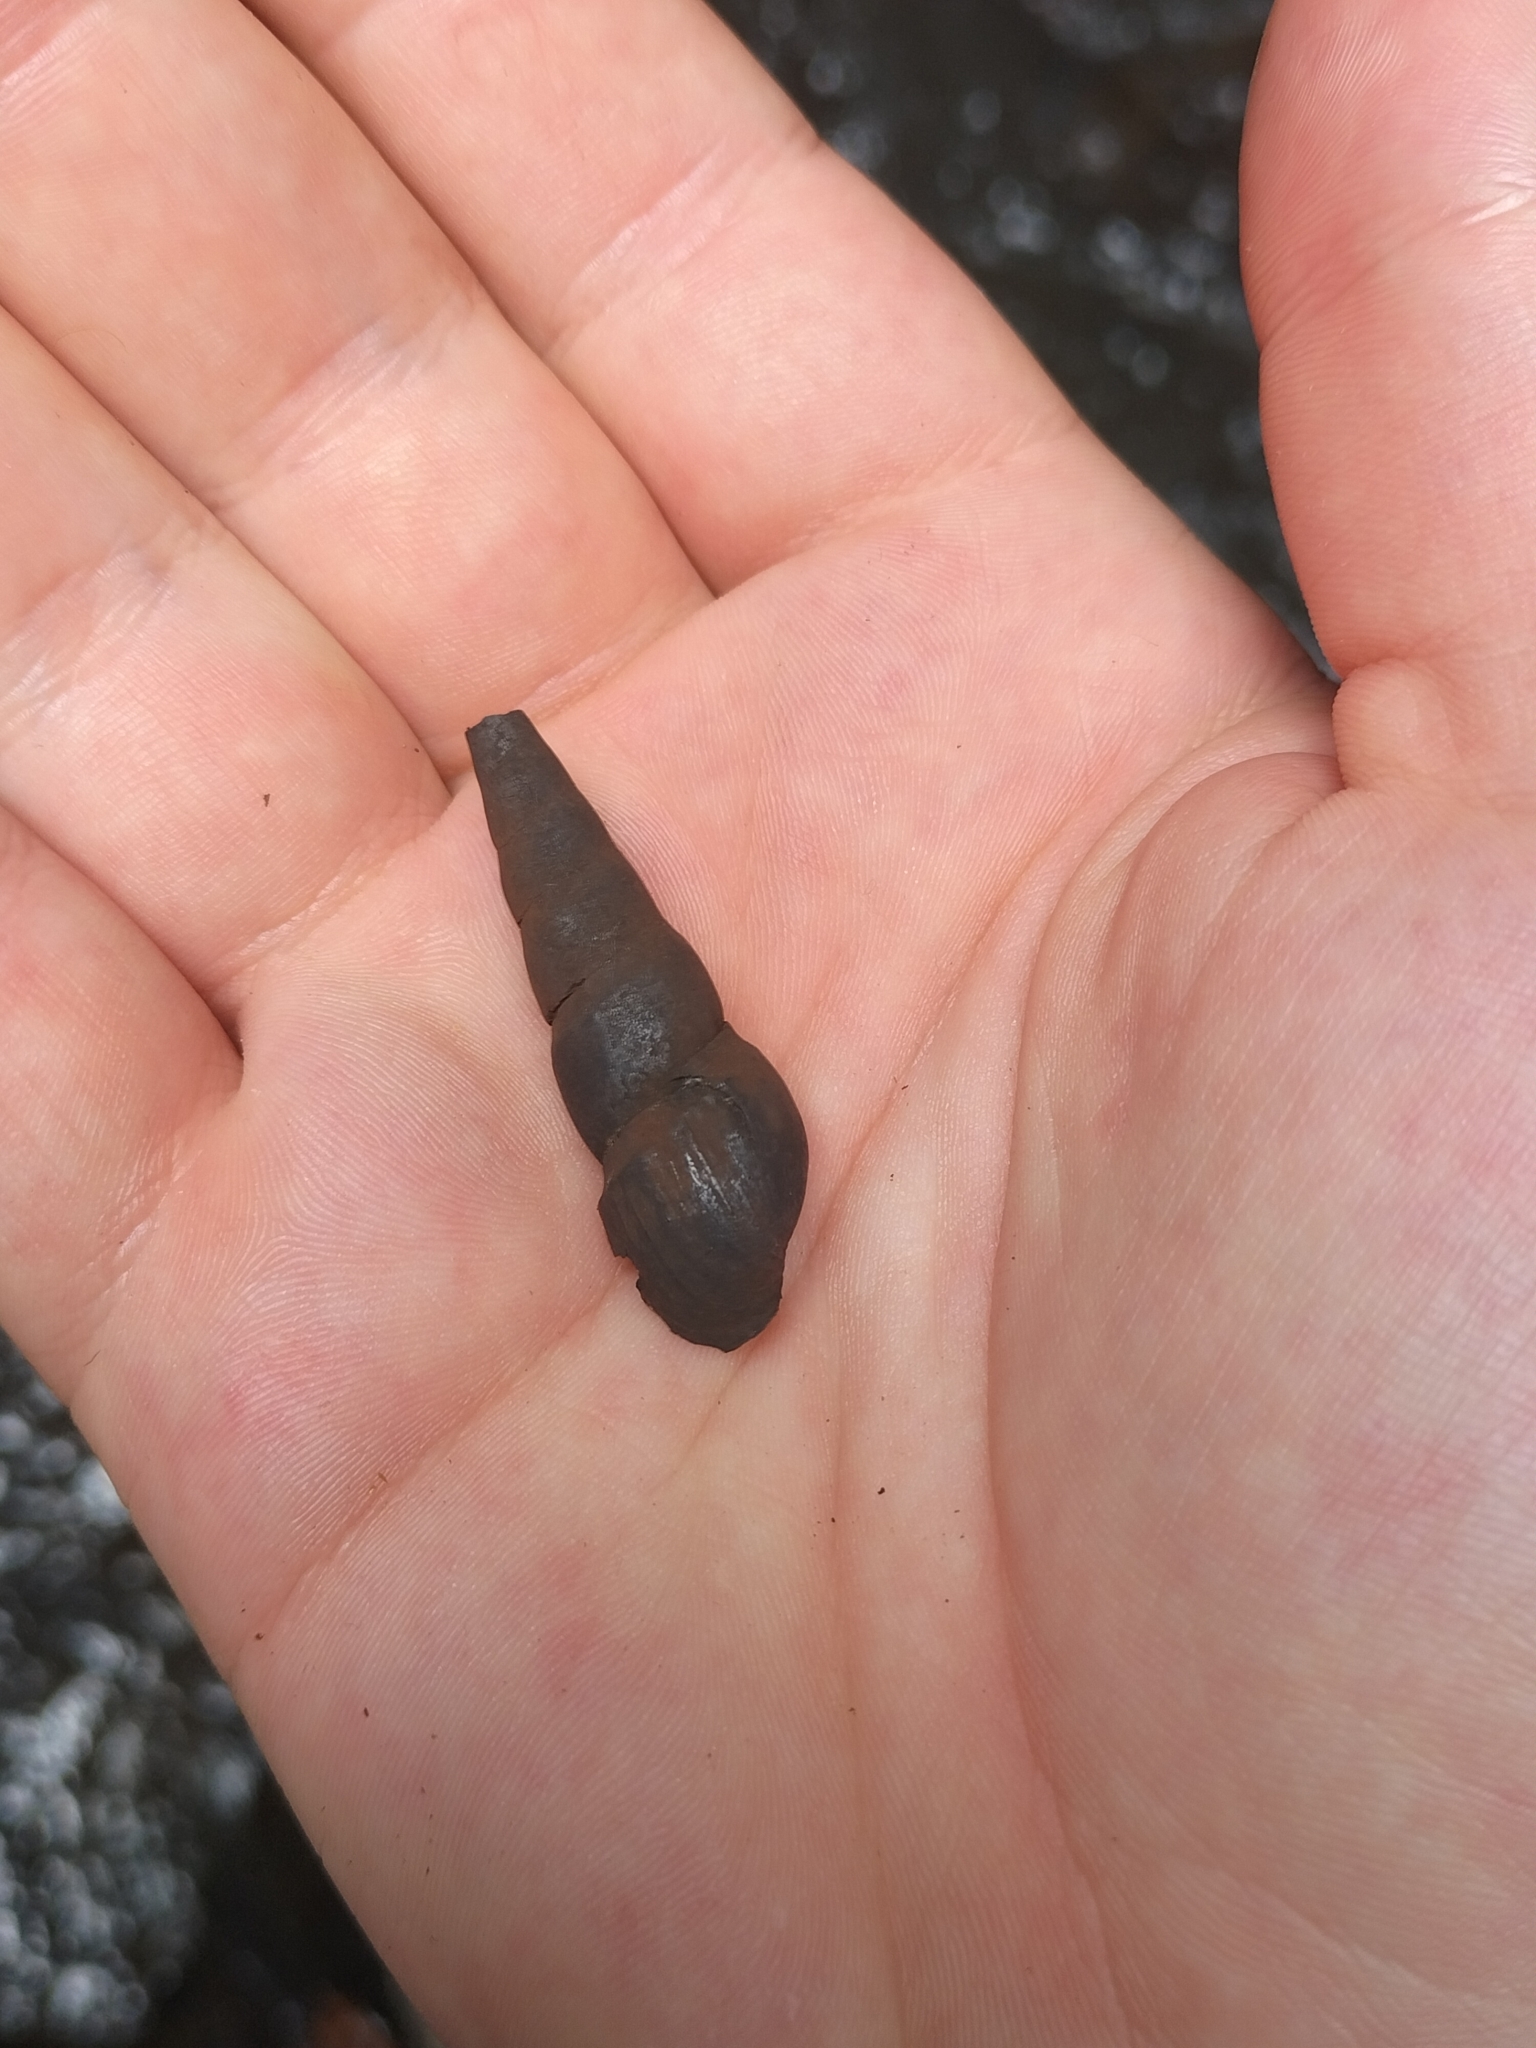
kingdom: Animalia
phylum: Mollusca
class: Gastropoda
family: Thiaridae
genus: Stenomelania
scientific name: Stenomelania denisoniensis
